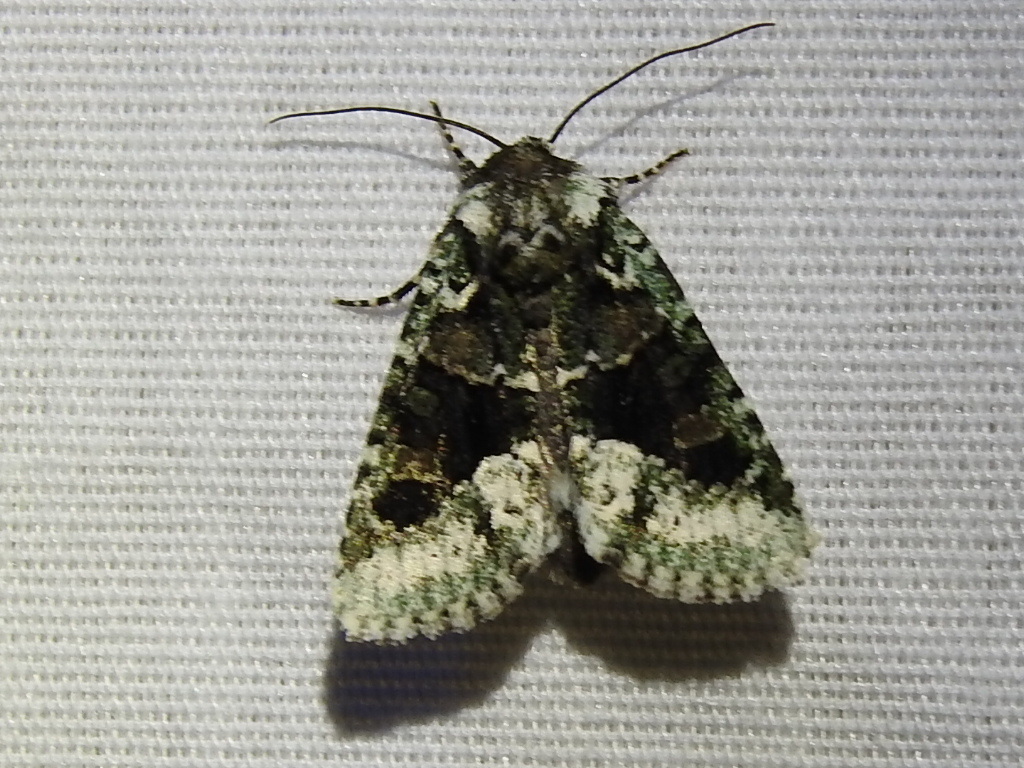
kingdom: Animalia
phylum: Arthropoda
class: Insecta
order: Lepidoptera
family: Noctuidae
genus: Lacinipolia
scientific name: Lacinipolia implicata
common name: Implicit arches
